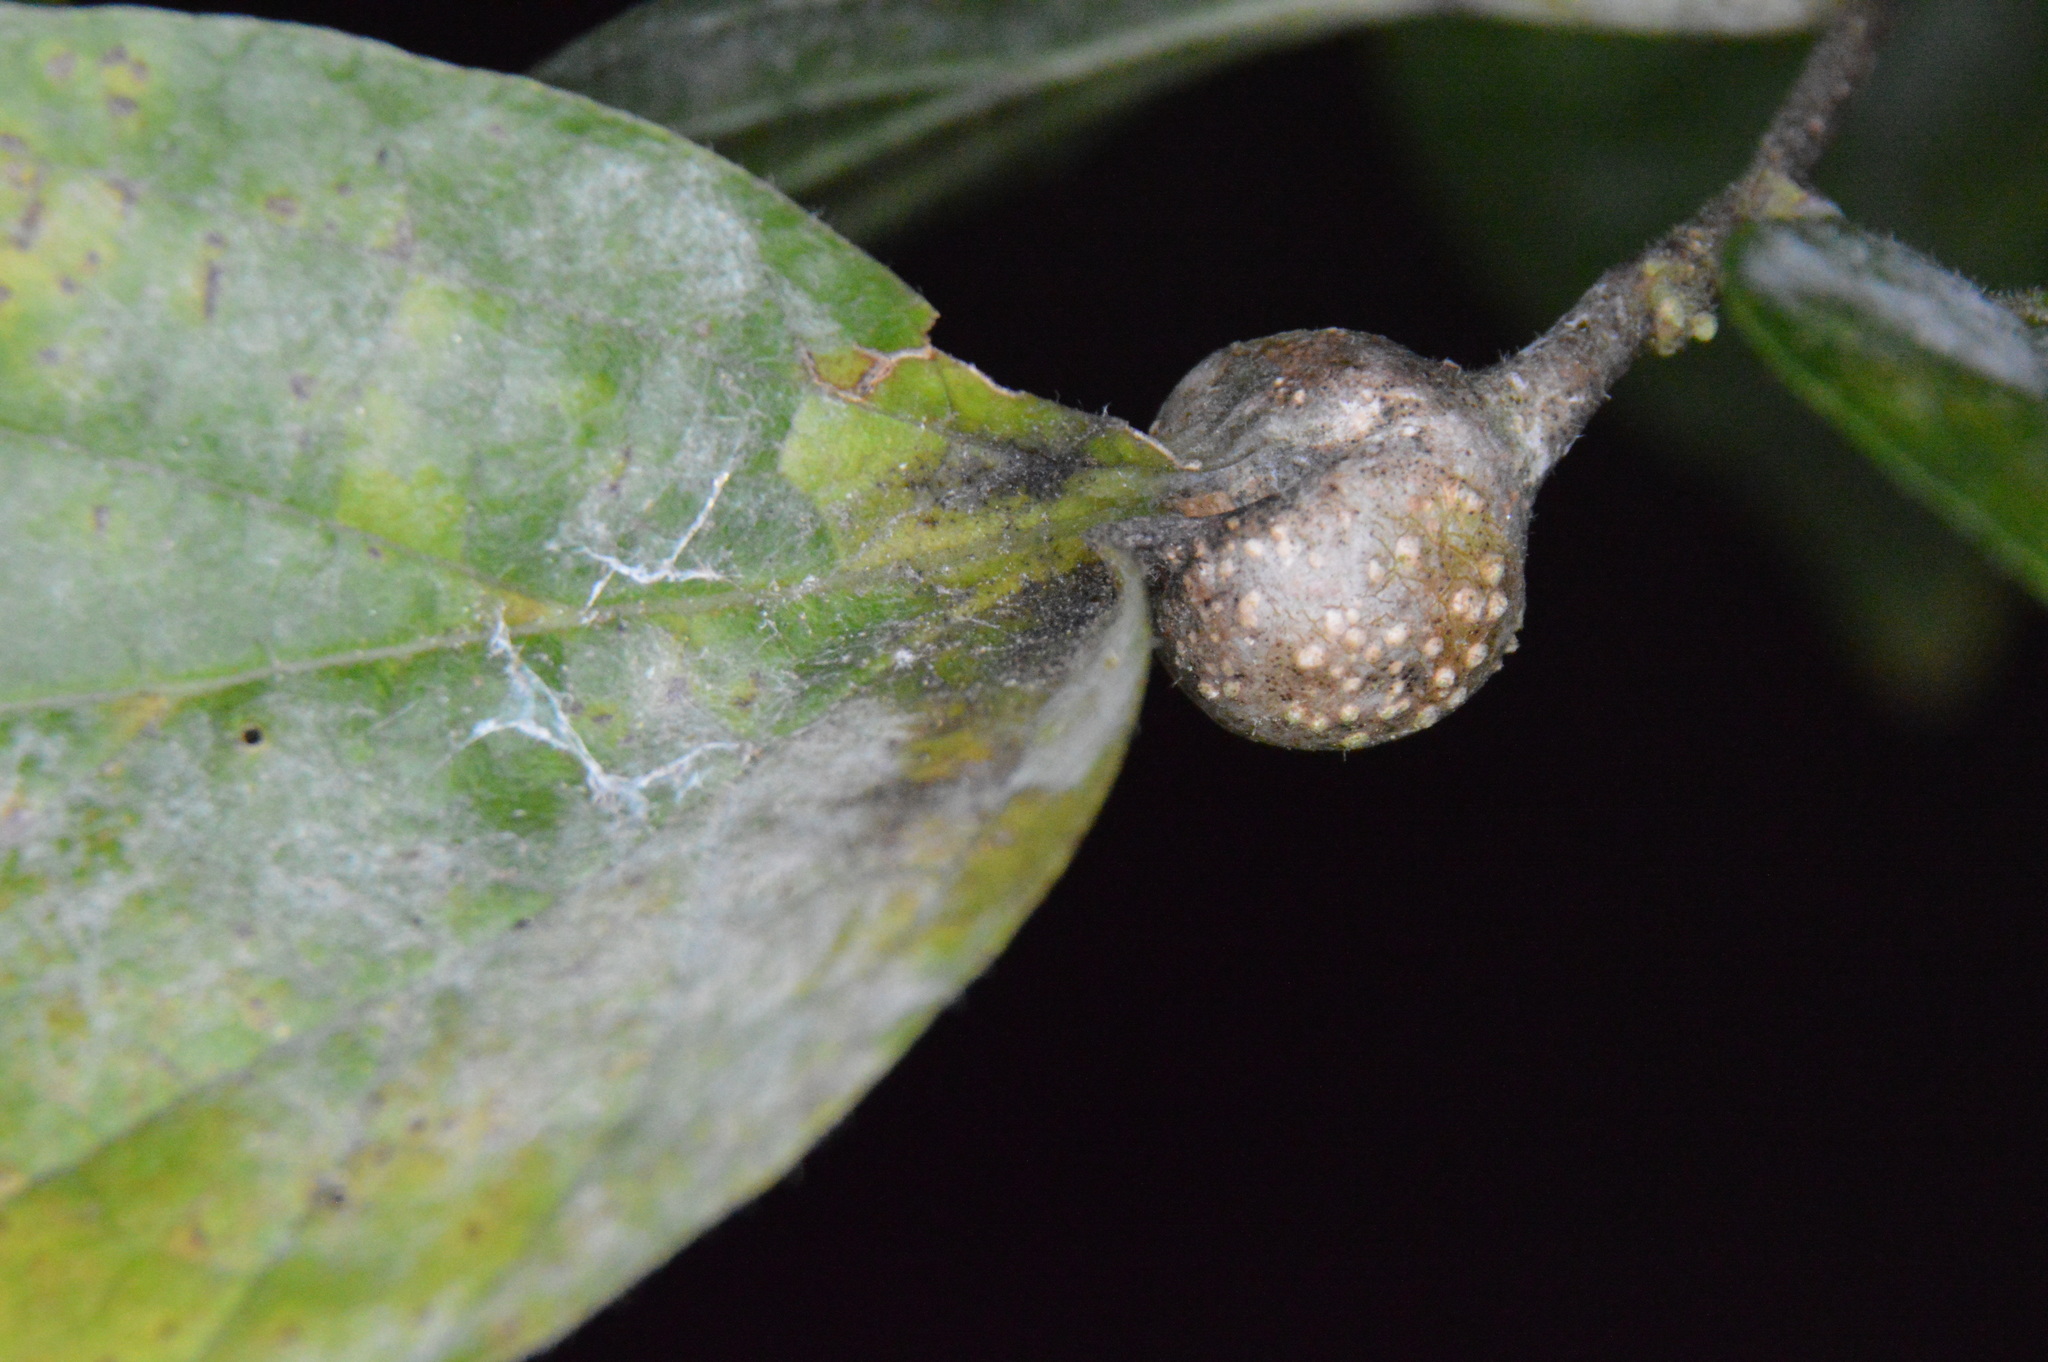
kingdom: Animalia
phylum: Arthropoda
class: Insecta
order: Hemiptera
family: Aphalaridae
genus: Pachypsylla
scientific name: Pachypsylla venusta
